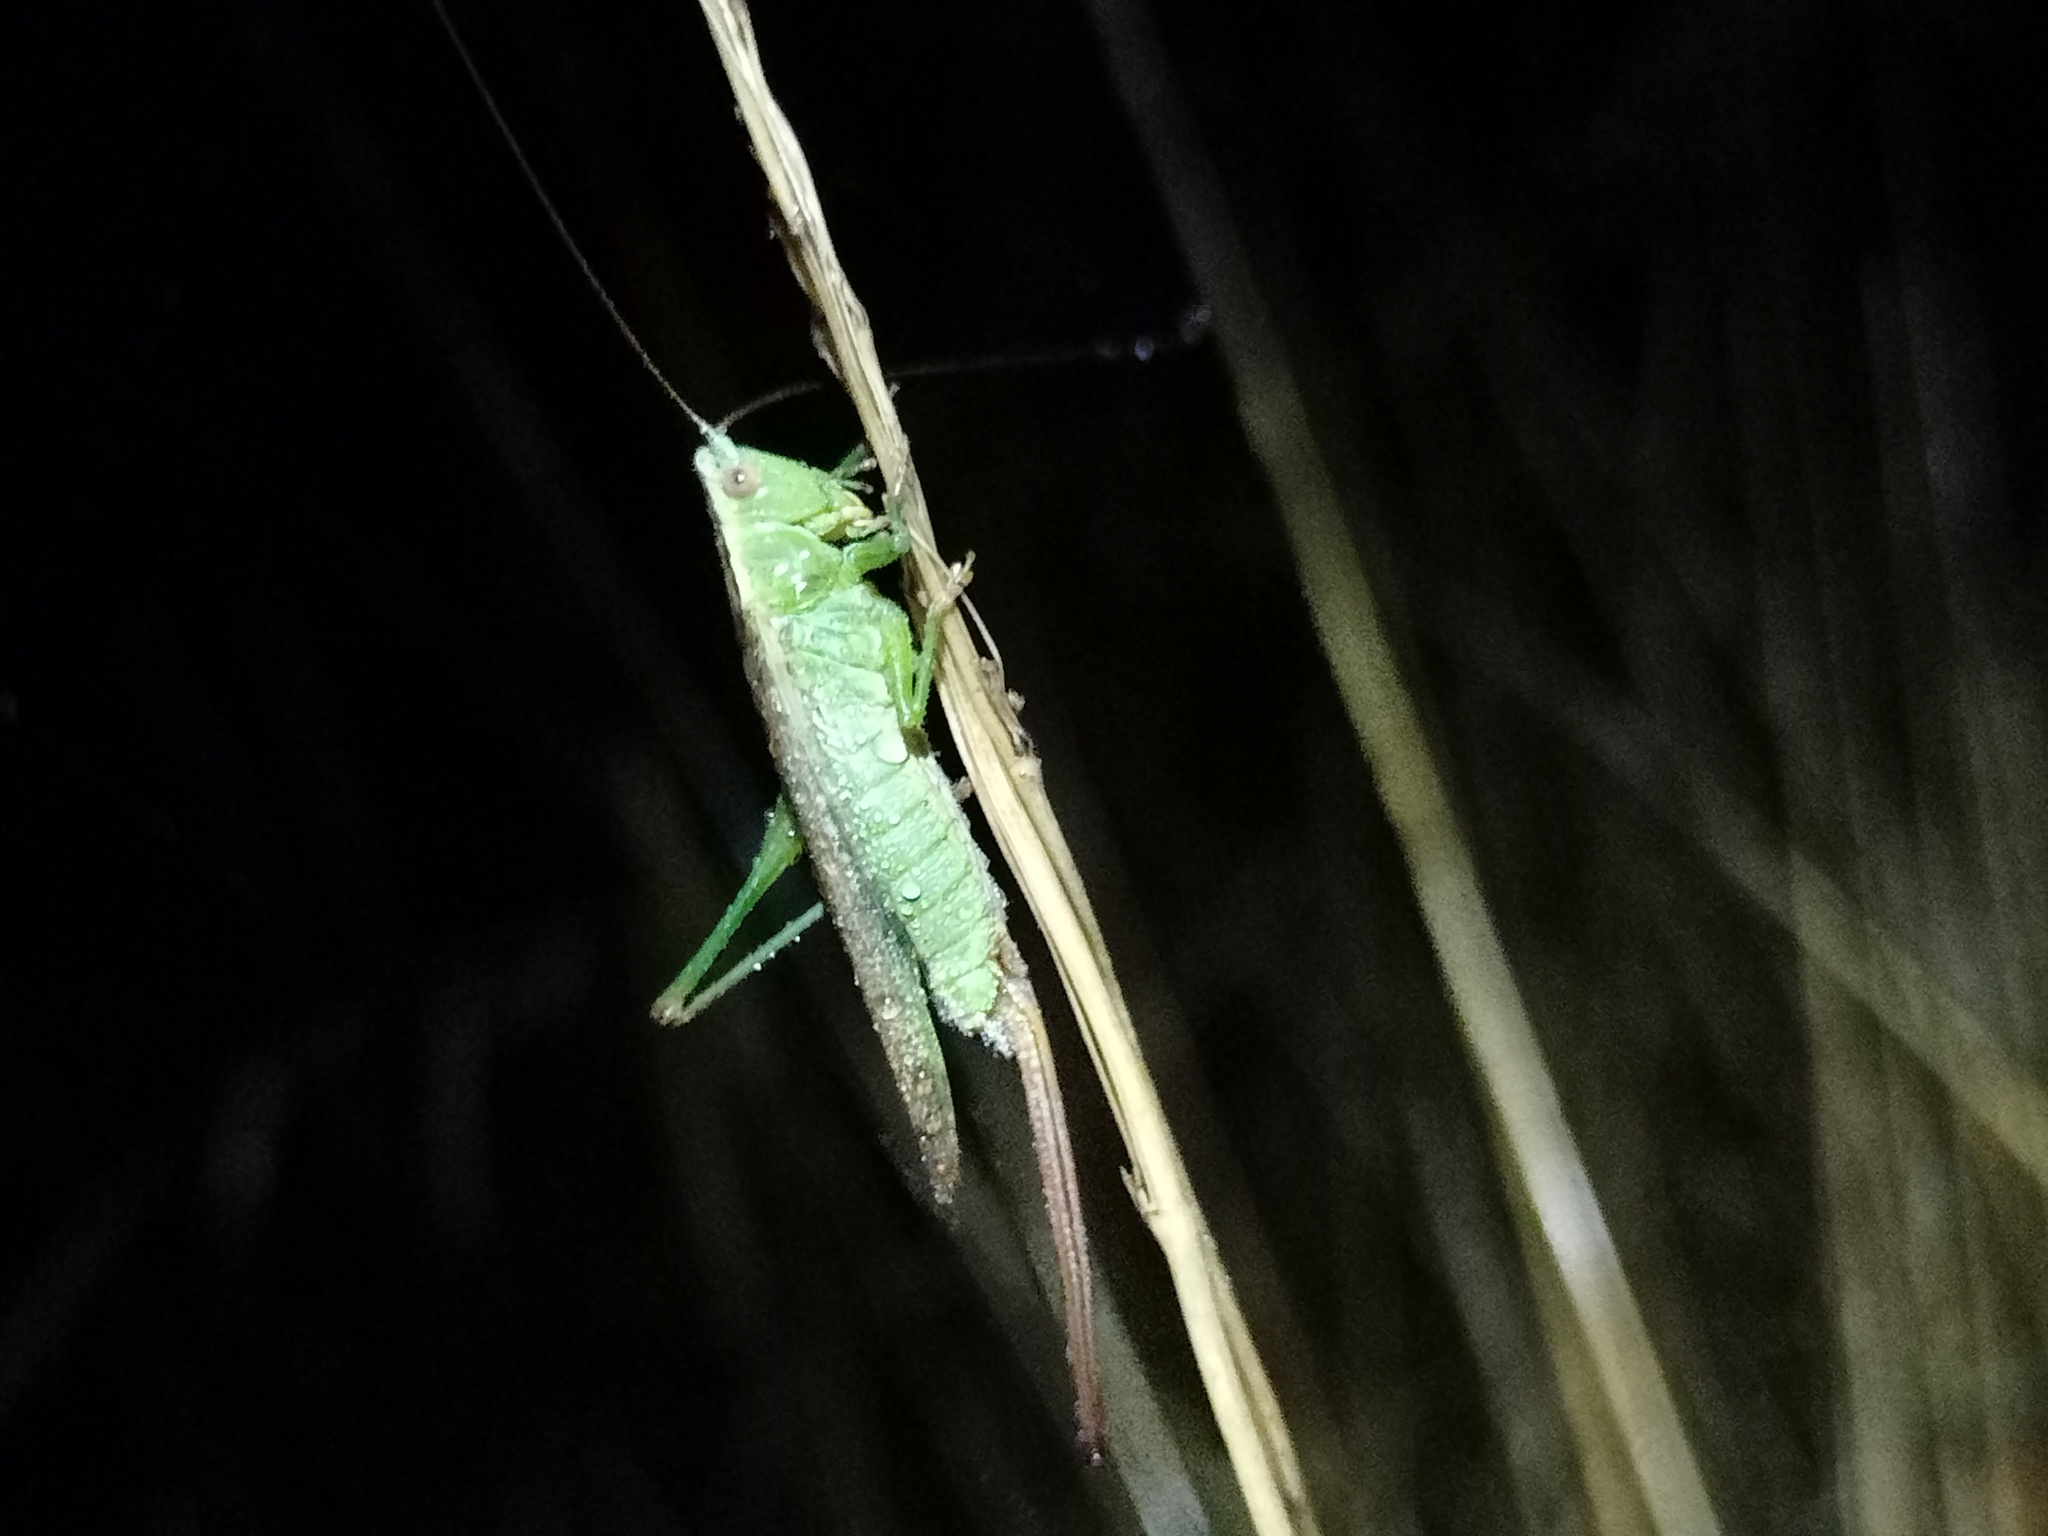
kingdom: Animalia
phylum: Arthropoda
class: Insecta
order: Orthoptera
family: Tettigoniidae
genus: Conocephalus
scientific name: Conocephalus fuscus
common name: Long-winged conehead
